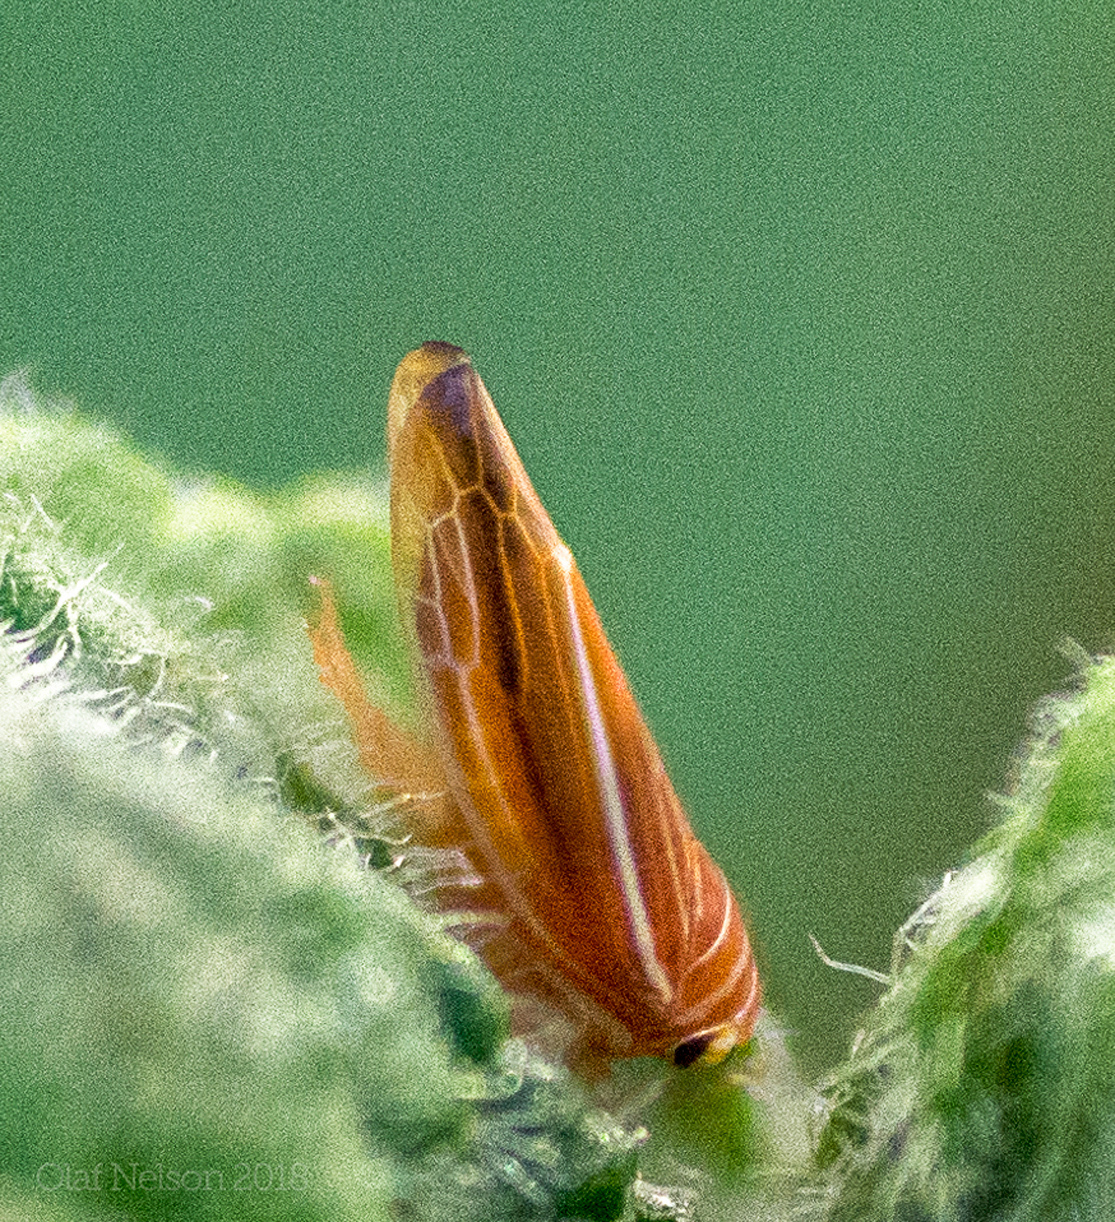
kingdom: Animalia
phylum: Arthropoda
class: Insecta
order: Hemiptera
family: Cicadellidae
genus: Idiodonus
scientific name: Idiodonus kennicotti
